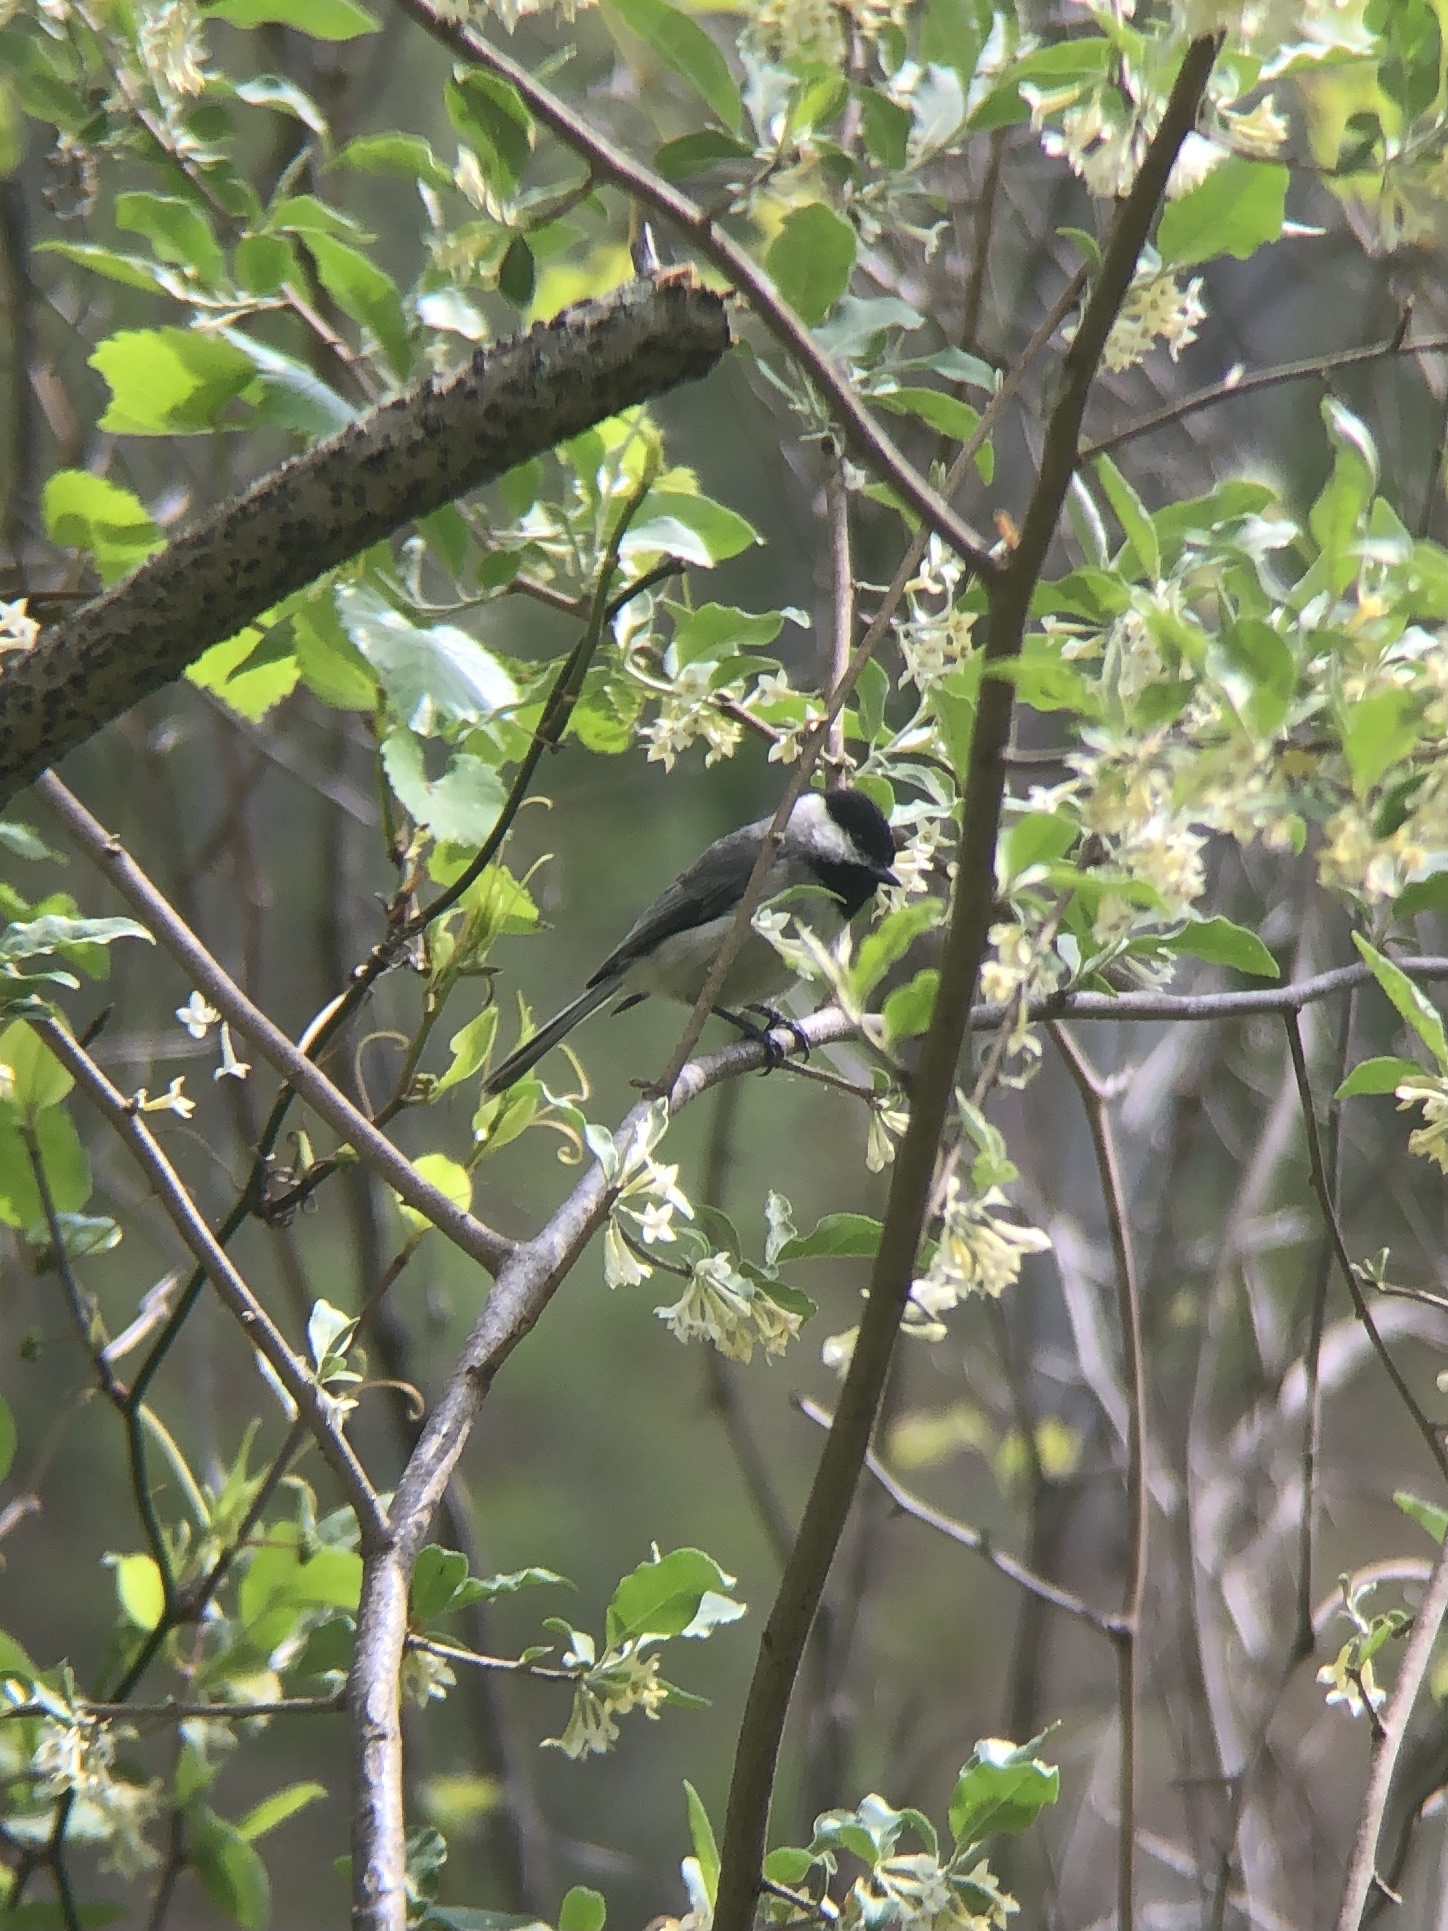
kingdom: Animalia
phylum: Chordata
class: Aves
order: Passeriformes
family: Paridae
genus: Poecile
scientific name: Poecile carolinensis
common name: Carolina chickadee
